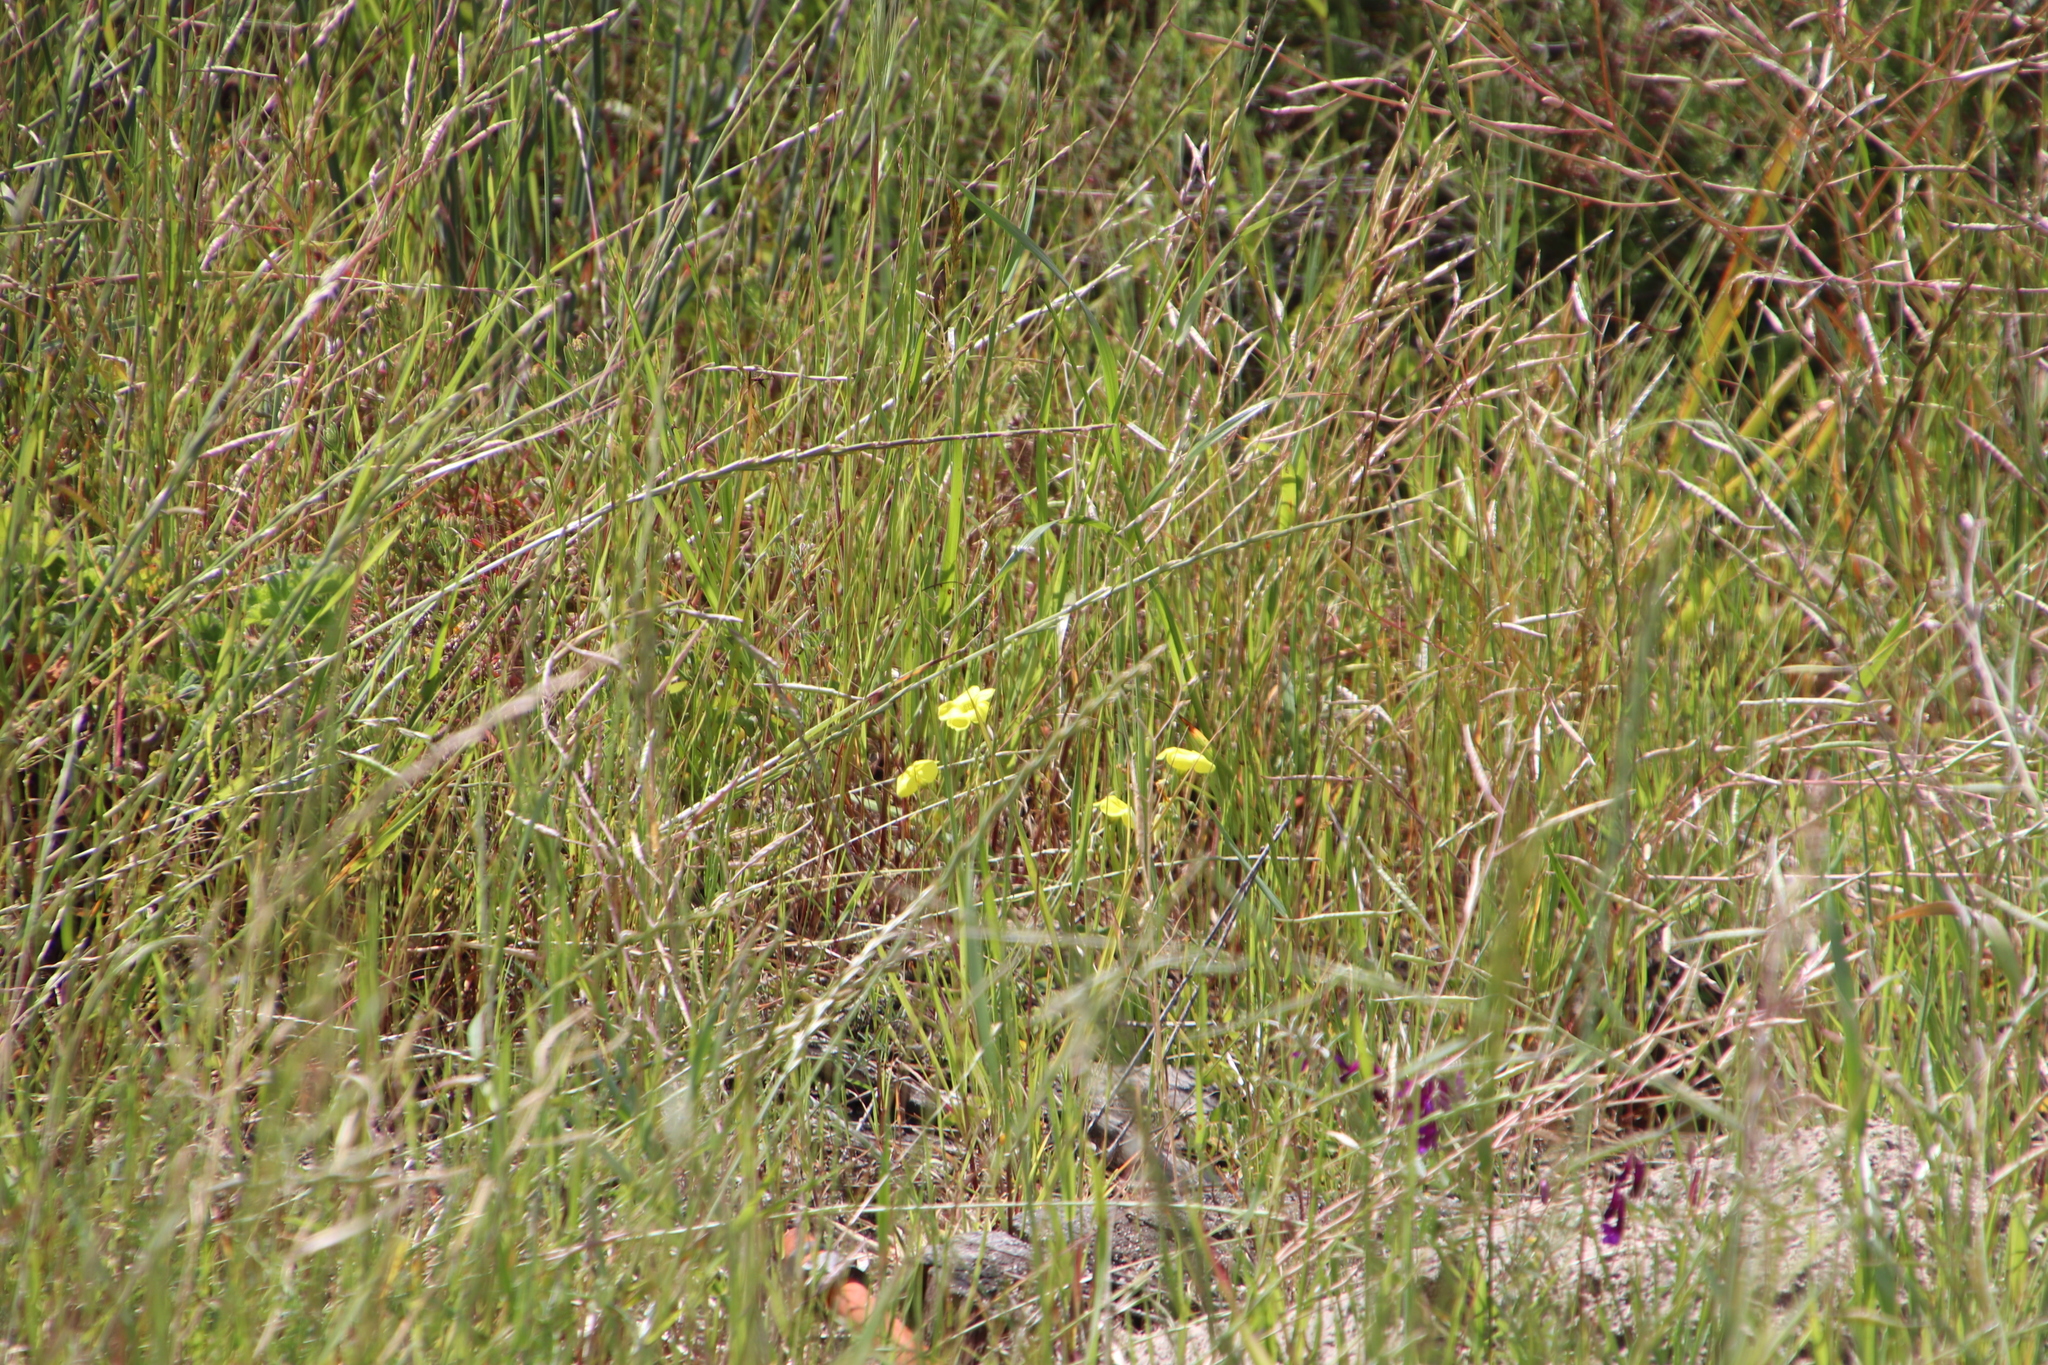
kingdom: Plantae
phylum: Tracheophyta
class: Magnoliopsida
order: Oxalidales
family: Oxalidaceae
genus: Oxalis
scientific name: Oxalis pes-caprae
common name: Bermuda-buttercup
